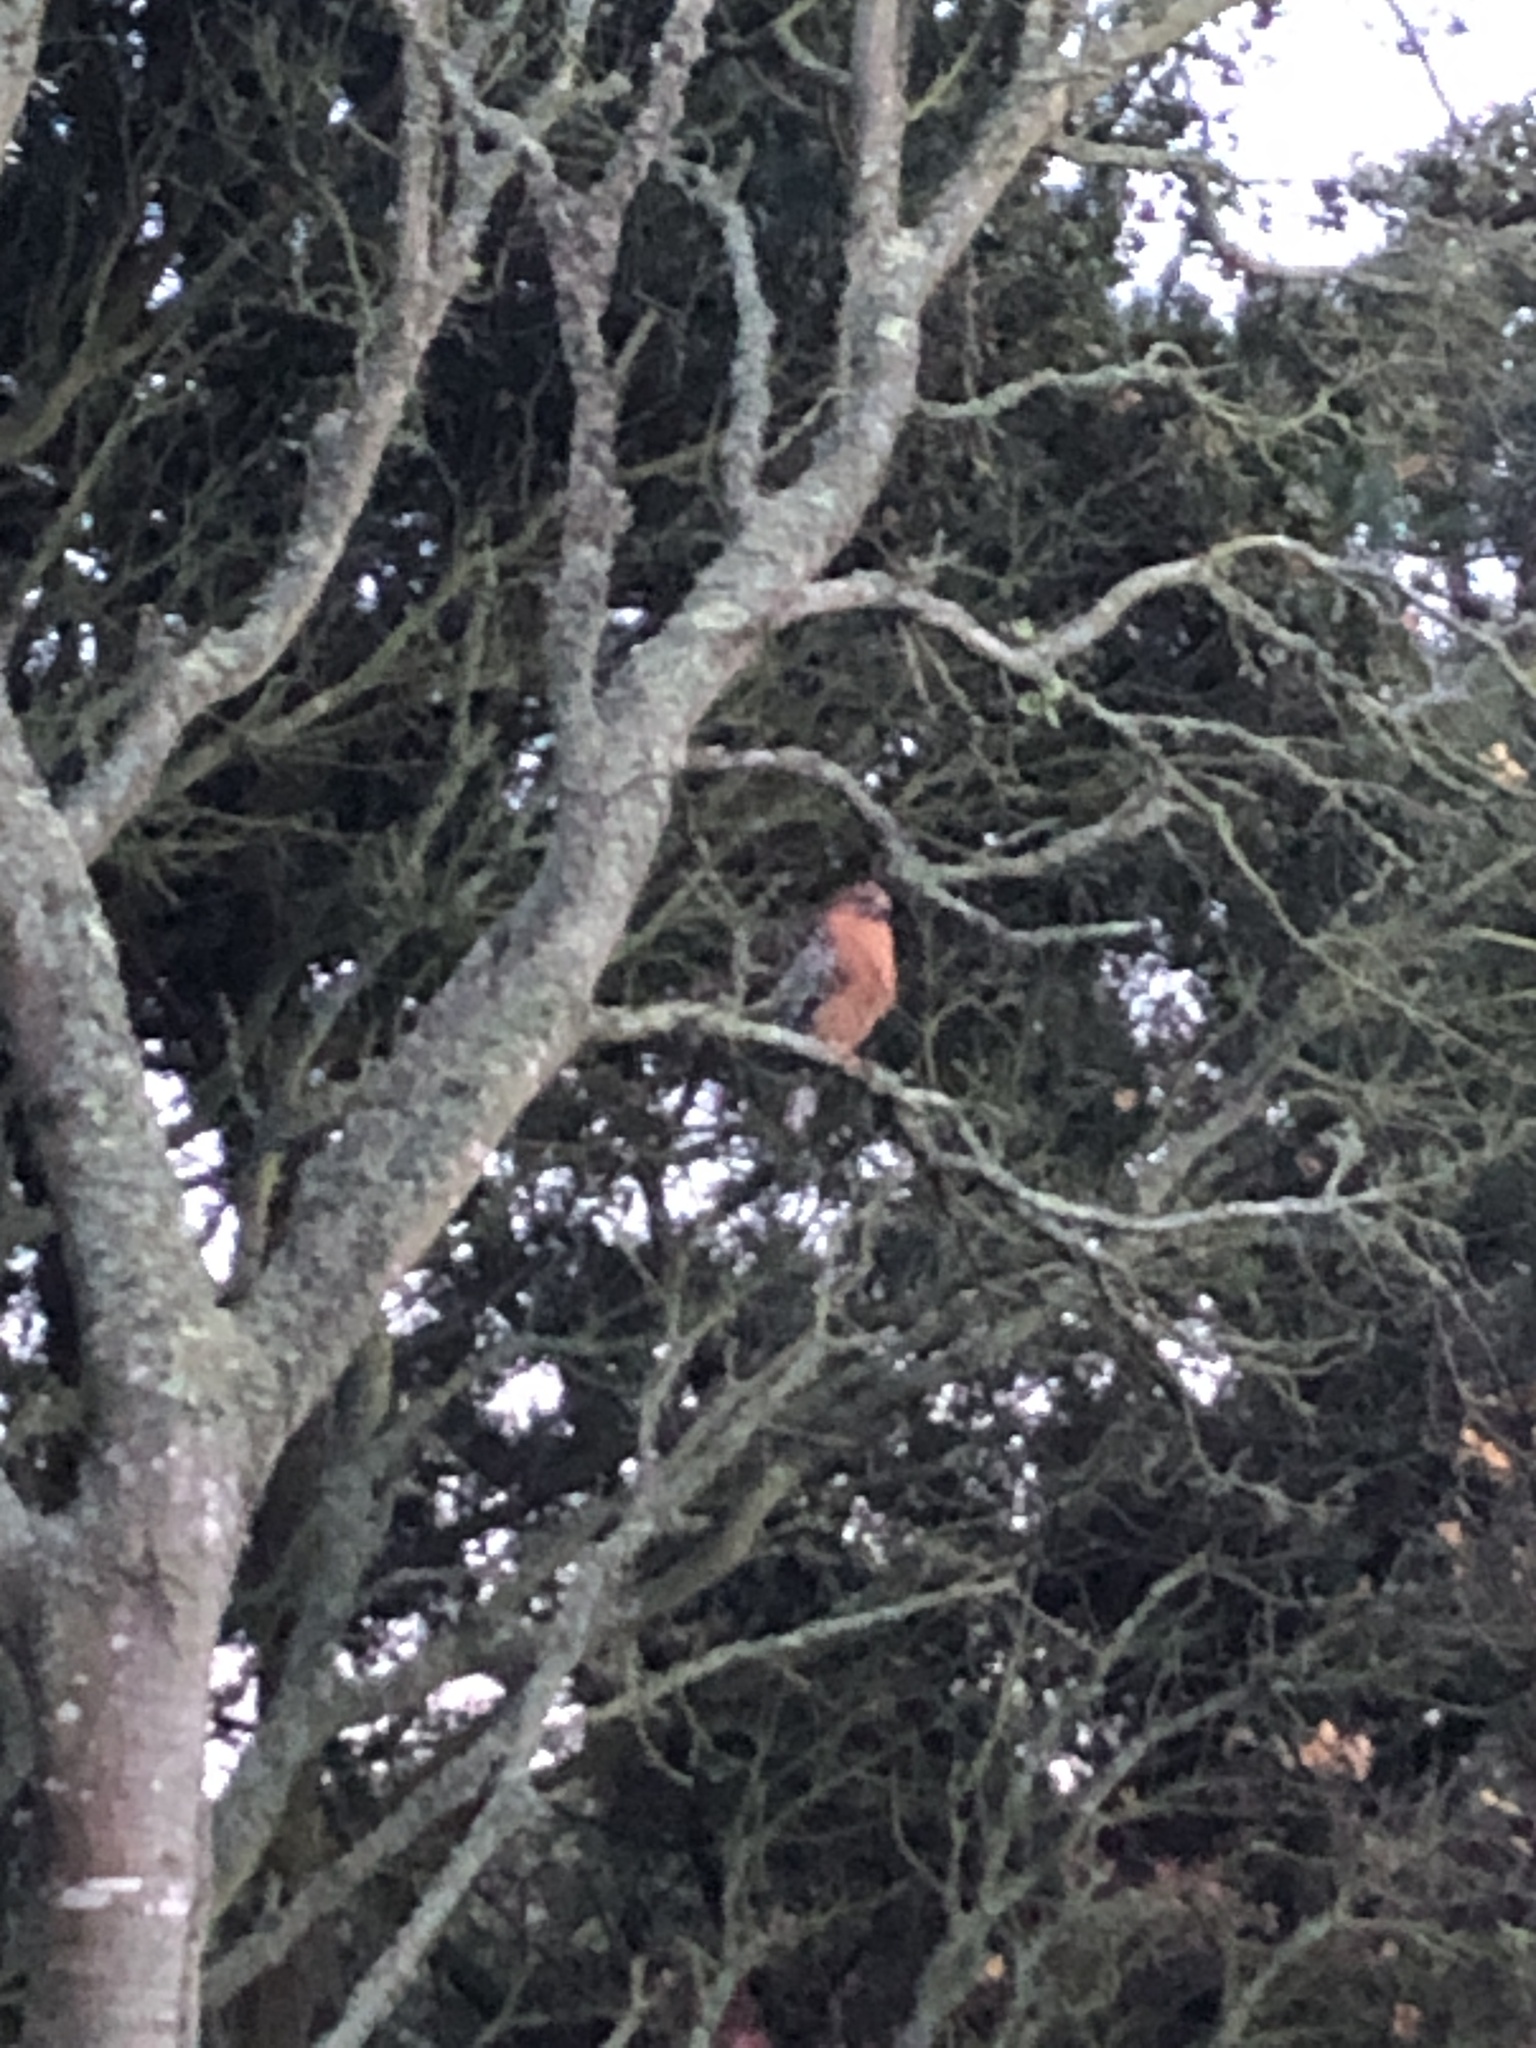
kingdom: Animalia
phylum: Chordata
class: Aves
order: Accipitriformes
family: Accipitridae
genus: Buteo
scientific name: Buteo lineatus
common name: Red-shouldered hawk
